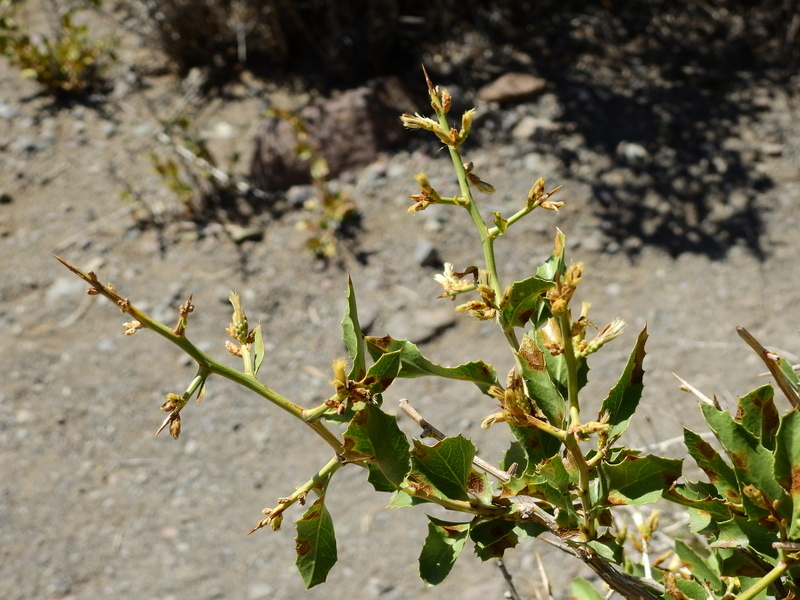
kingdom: Plantae
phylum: Tracheophyta
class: Magnoliopsida
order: Asterales
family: Asteraceae
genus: Proustia
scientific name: Proustia cuneifolia
